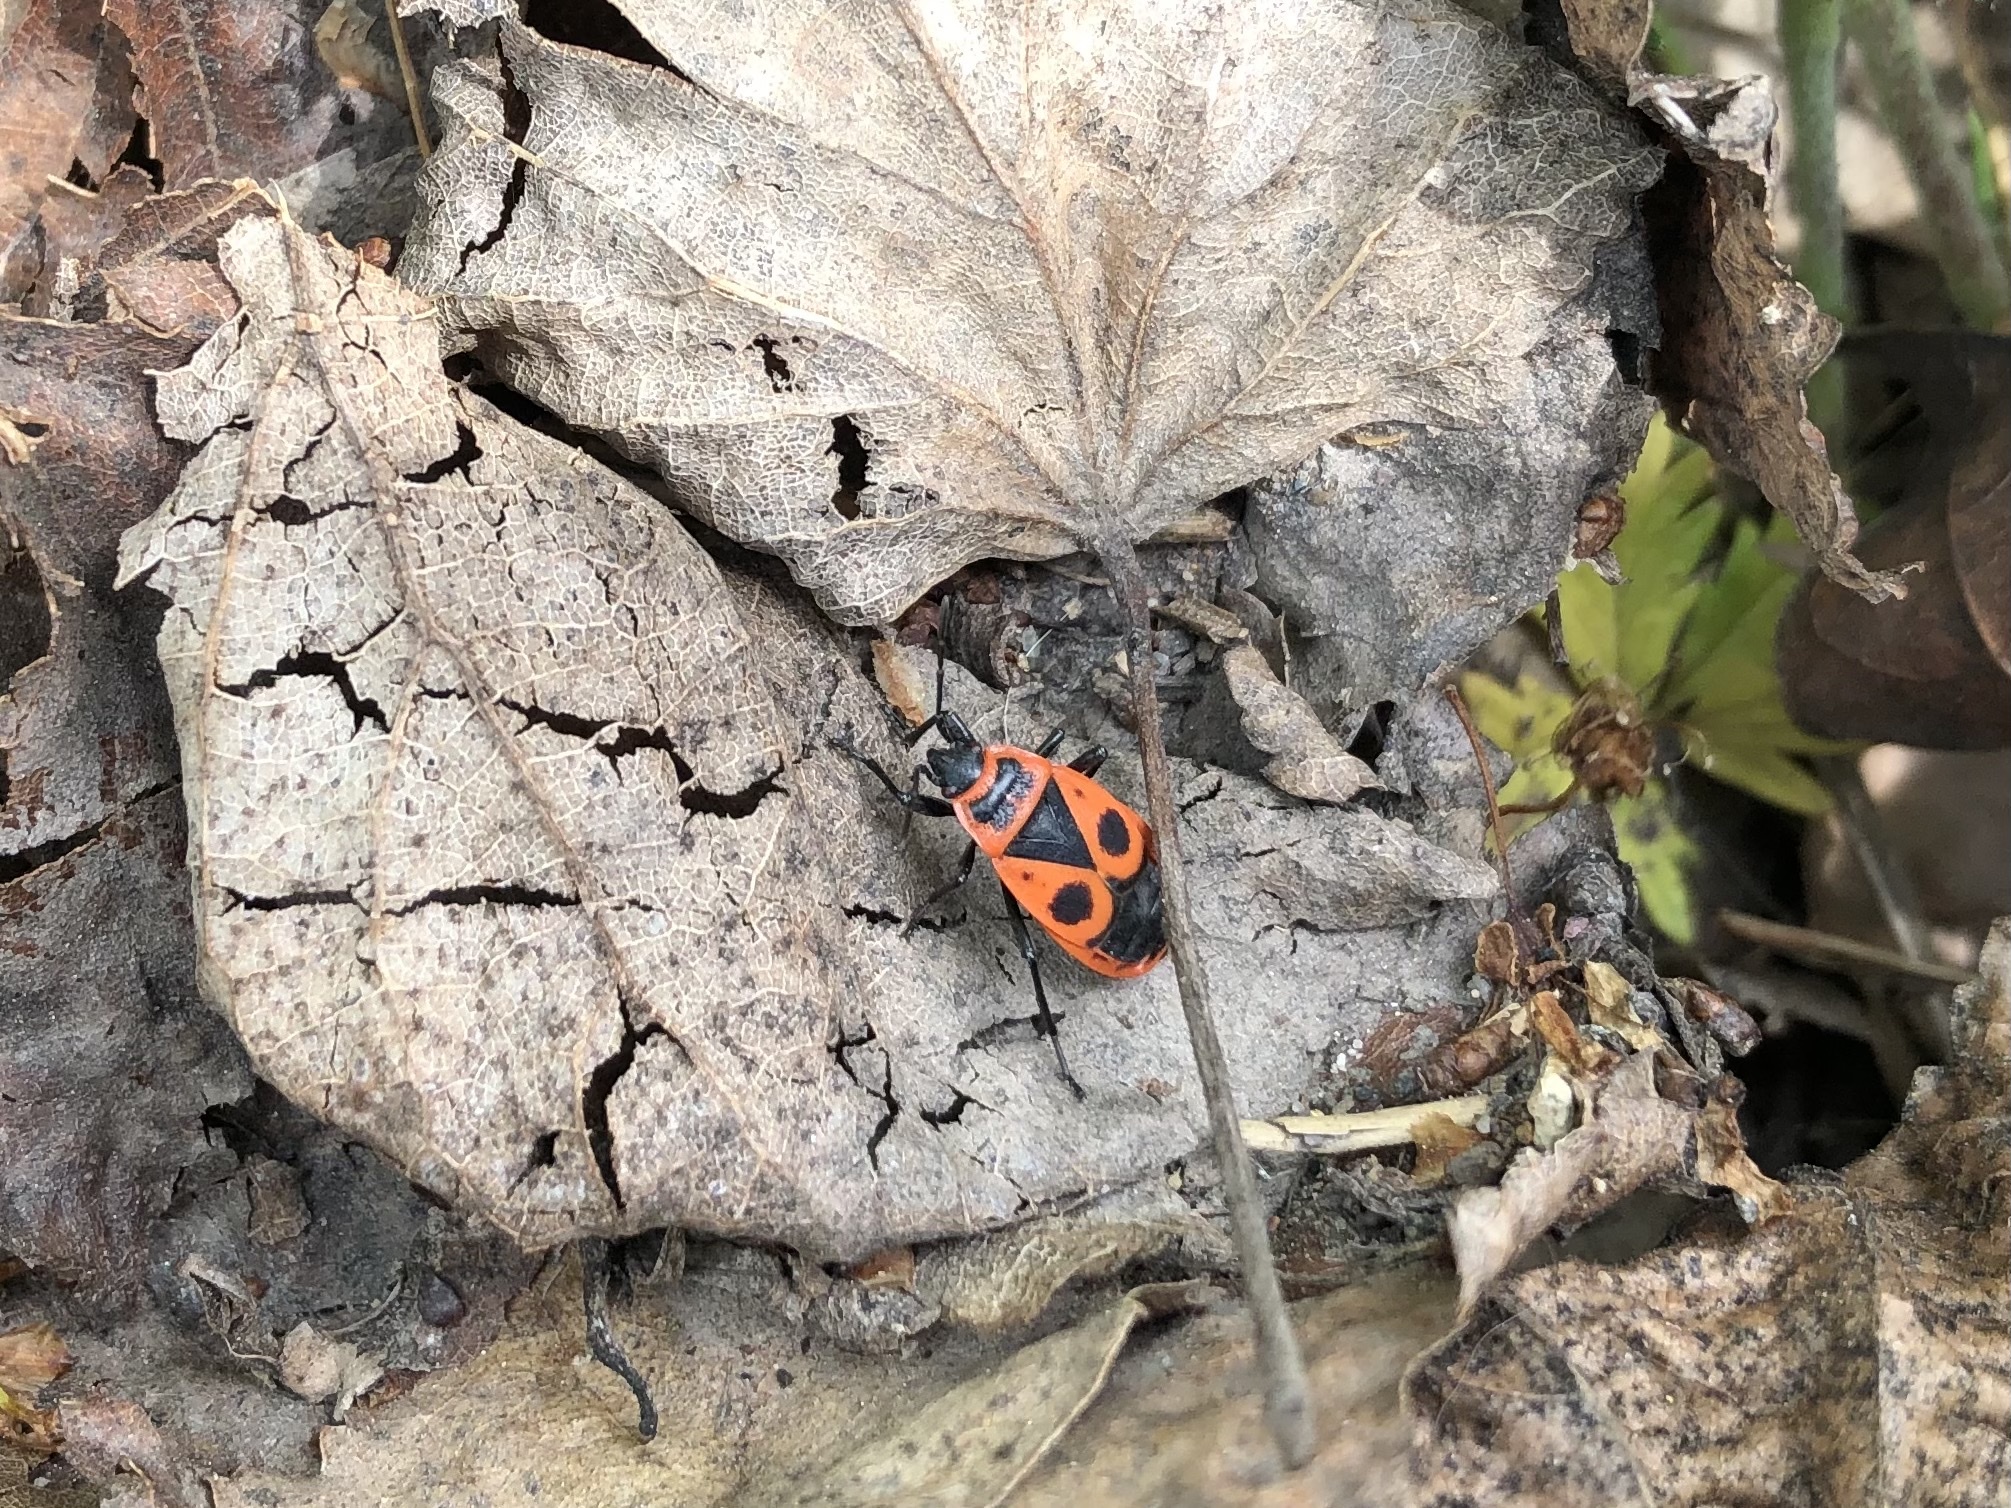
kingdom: Animalia
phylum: Arthropoda
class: Insecta
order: Hemiptera
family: Pyrrhocoridae
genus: Pyrrhocoris
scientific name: Pyrrhocoris apterus
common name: Firebug
